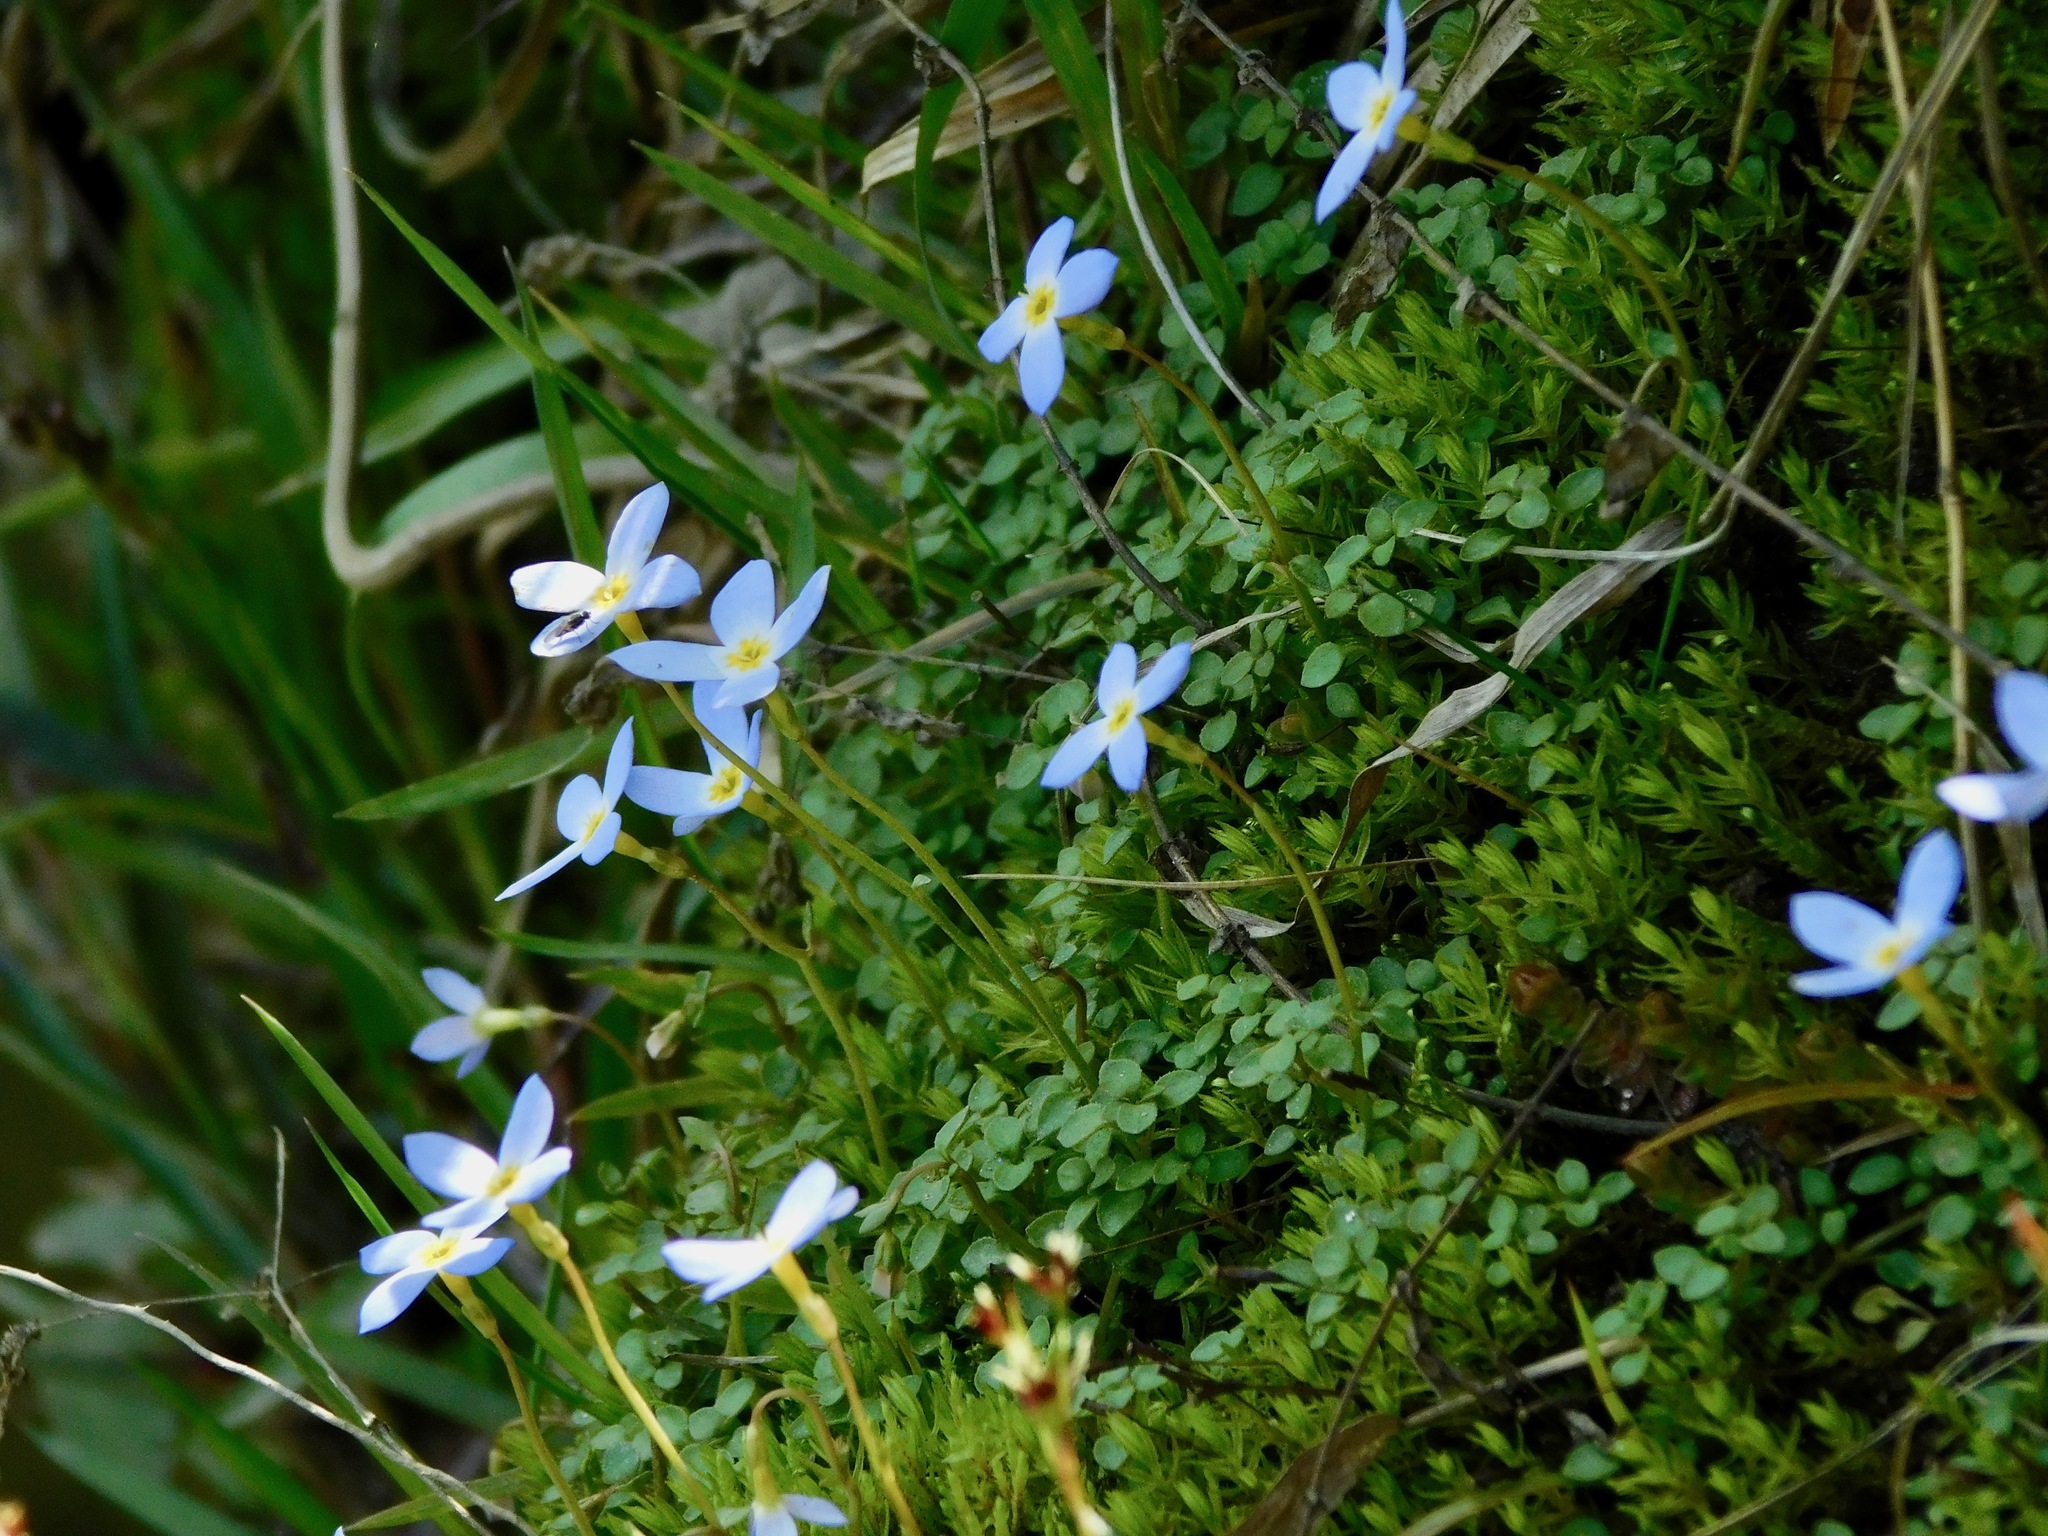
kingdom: Plantae
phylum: Tracheophyta
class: Magnoliopsida
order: Gentianales
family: Rubiaceae
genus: Houstonia
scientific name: Houstonia serpyllifolia
